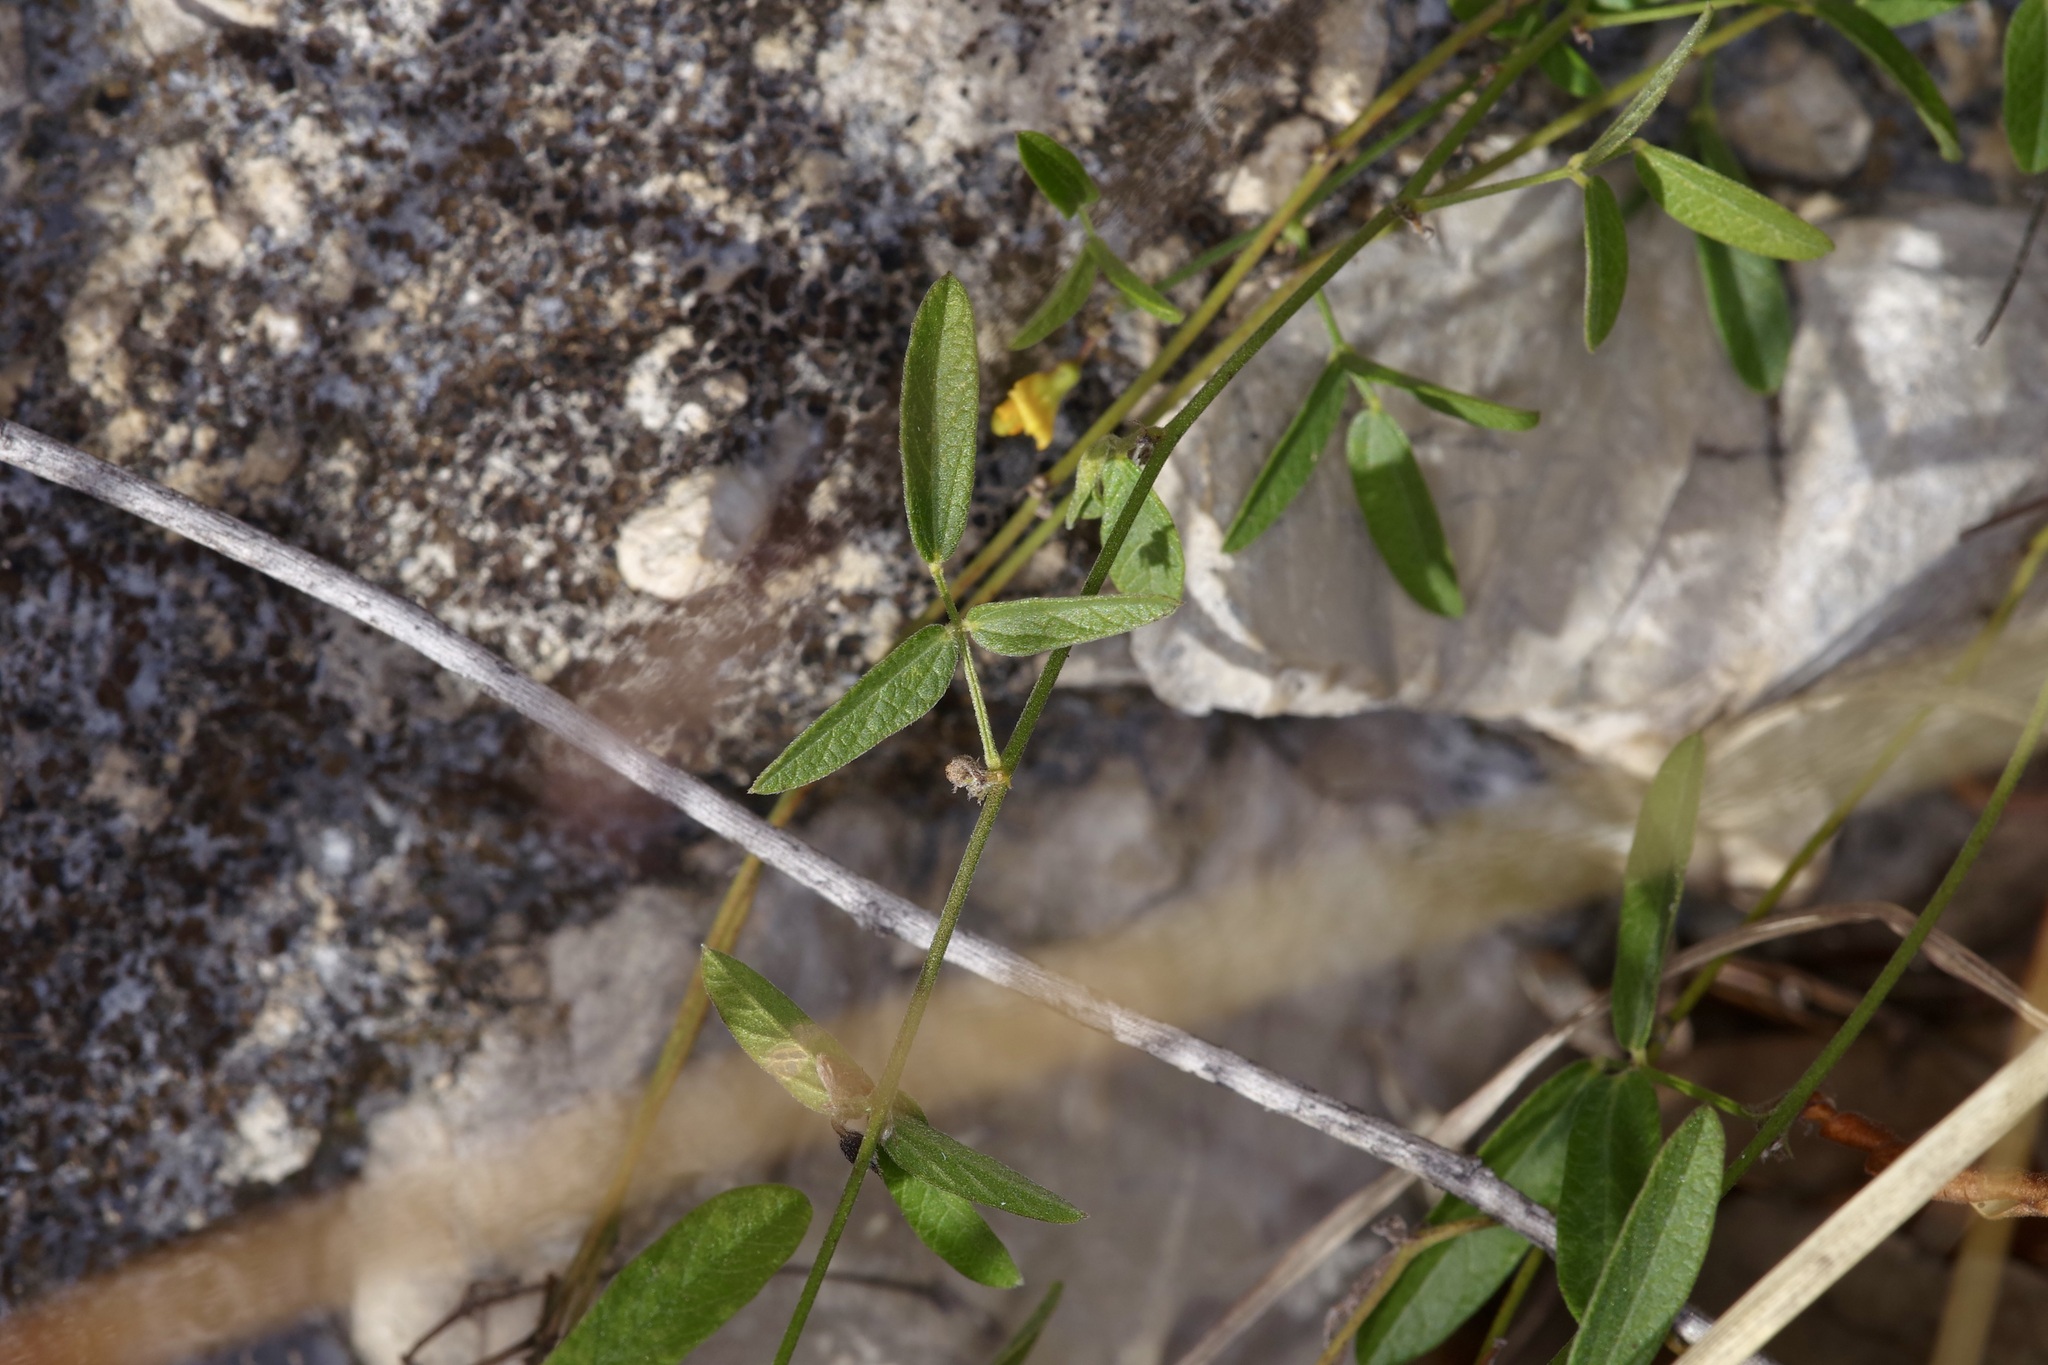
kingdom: Plantae
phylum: Tracheophyta
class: Magnoliopsida
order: Fabales
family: Fabaceae
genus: Rhynchosia
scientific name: Rhynchosia senna
